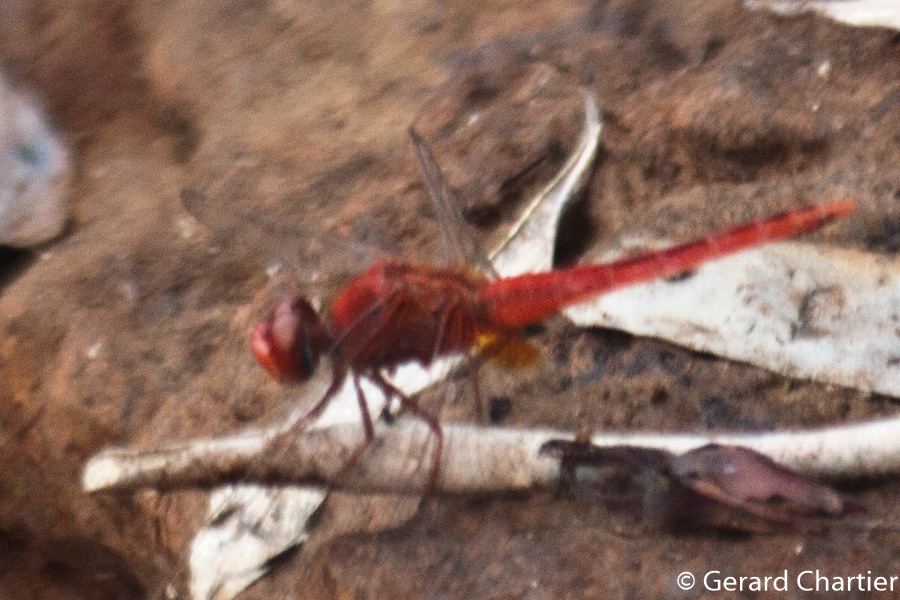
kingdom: Animalia
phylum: Arthropoda
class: Insecta
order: Odonata
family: Libellulidae
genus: Crocothemis
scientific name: Crocothemis servilia
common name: Scarlet skimmer
